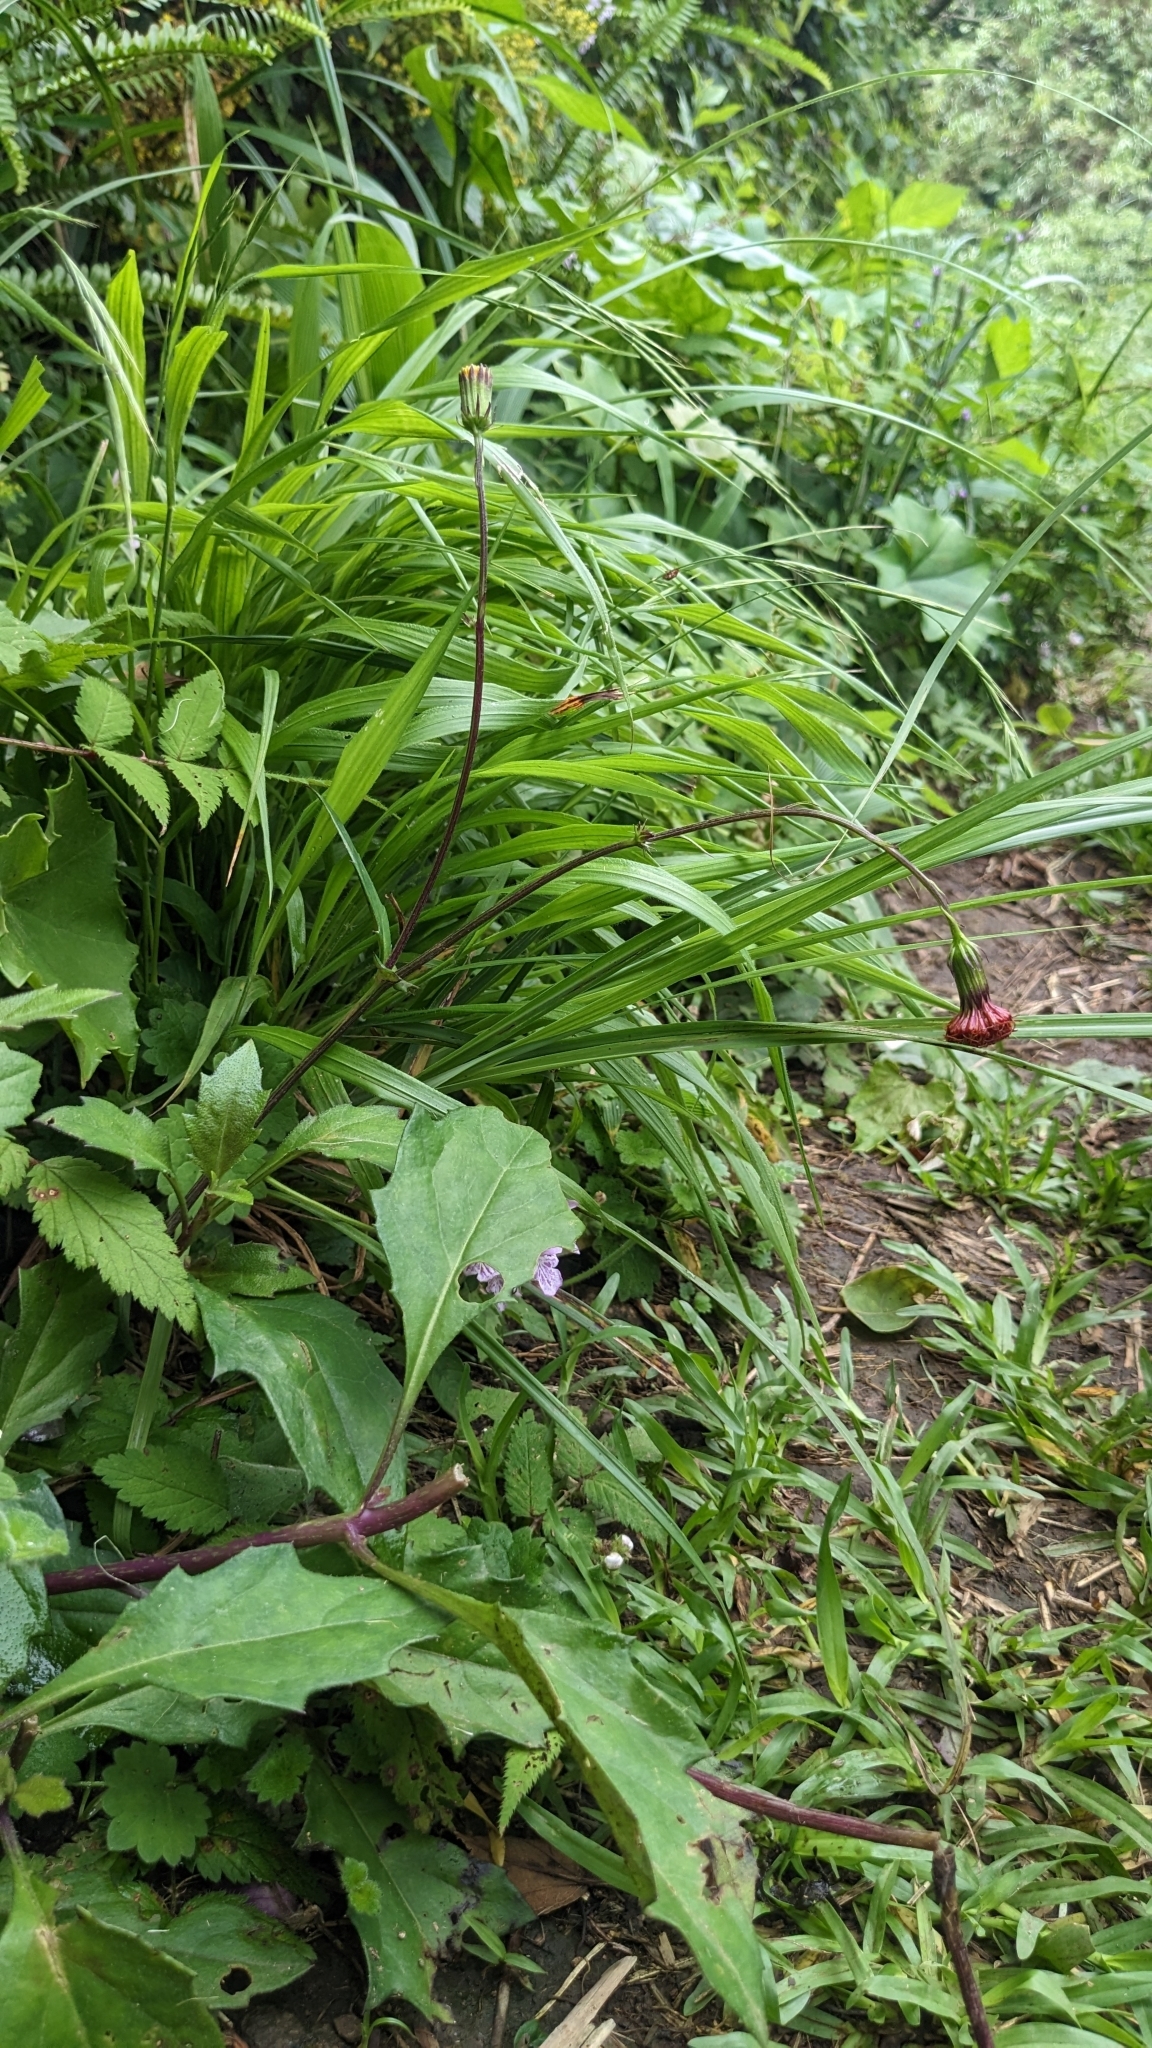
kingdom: Plantae
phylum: Tracheophyta
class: Magnoliopsida
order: Asterales
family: Asteraceae
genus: Gynura
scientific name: Gynura bicolor
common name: Red-vegetable
